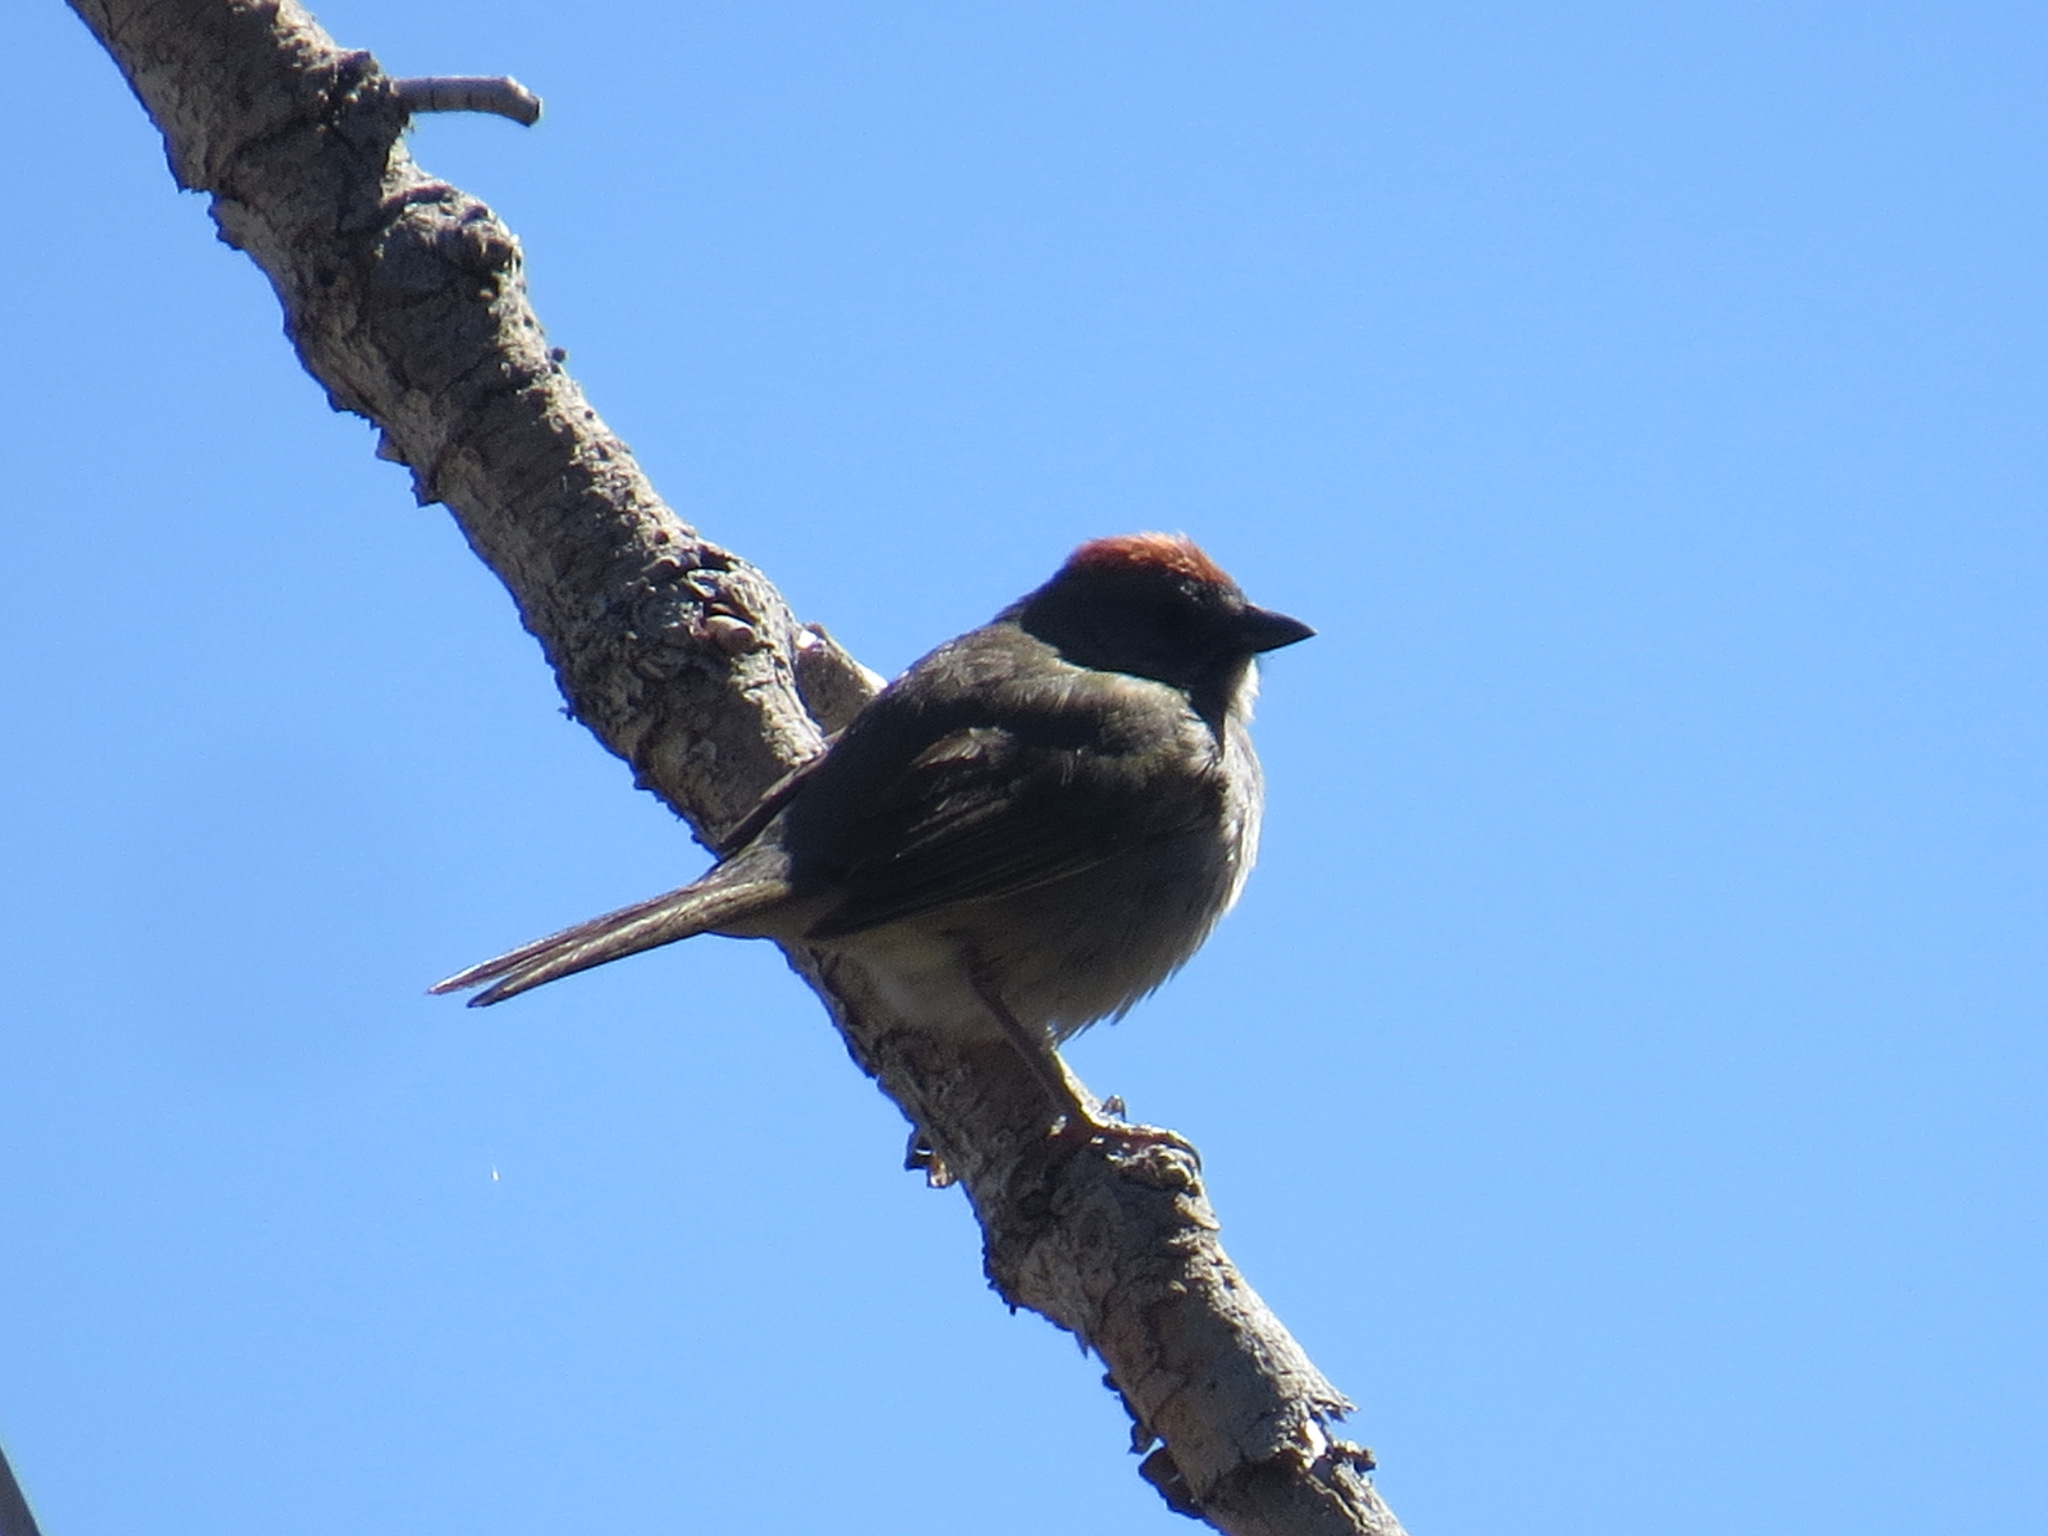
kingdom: Animalia
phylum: Chordata
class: Aves
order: Passeriformes
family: Passerellidae
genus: Pipilo
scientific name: Pipilo chlorurus
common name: Green-tailed towhee
